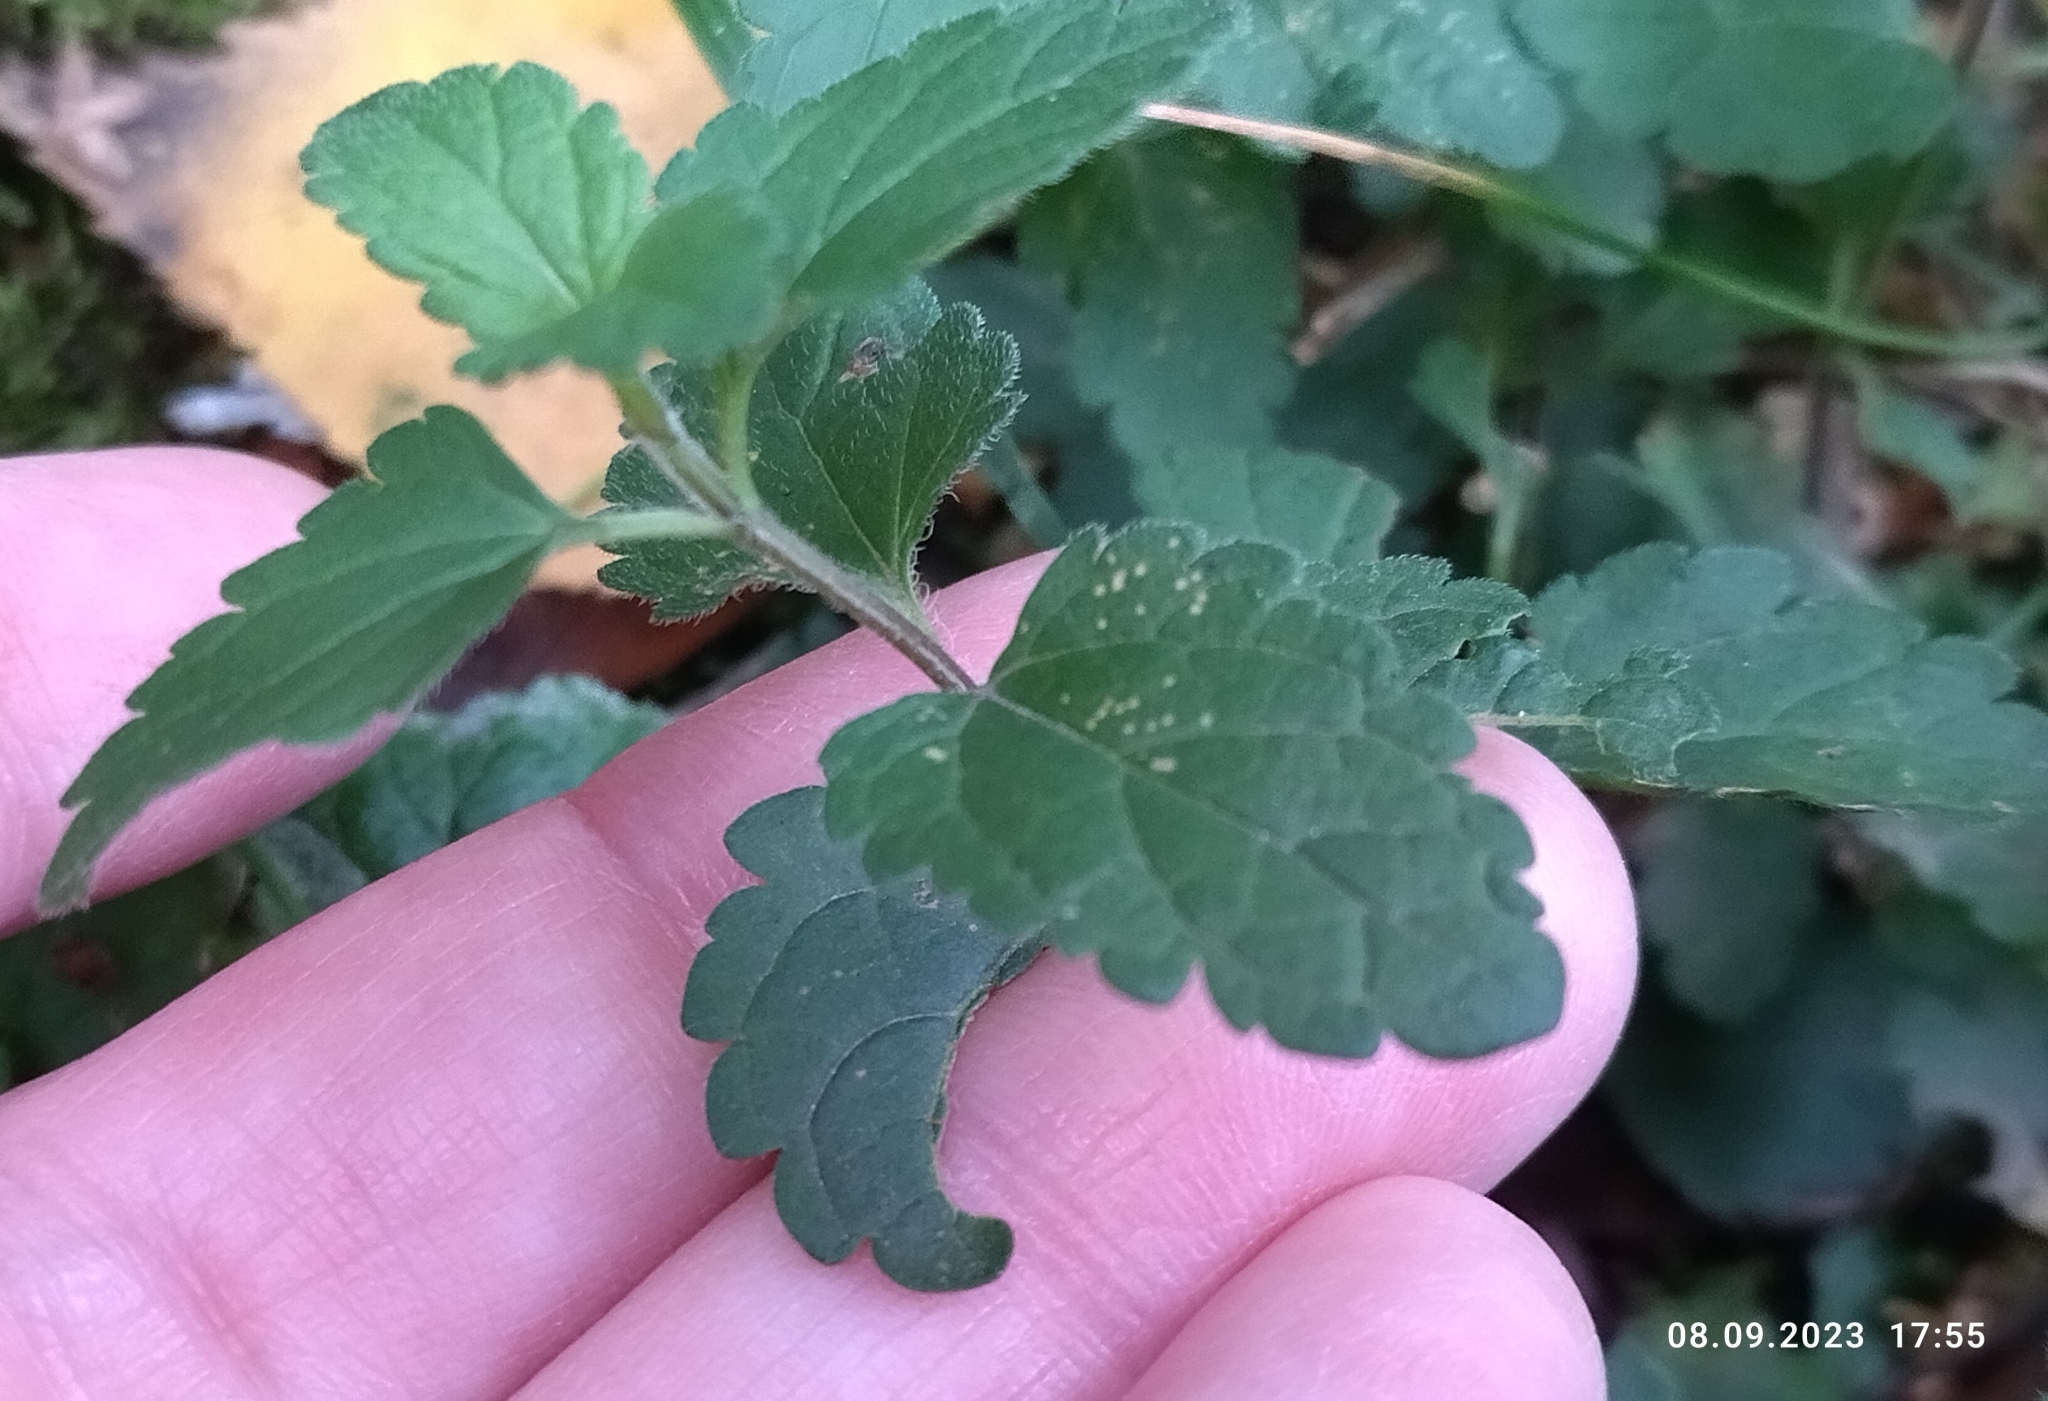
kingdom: Plantae
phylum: Tracheophyta
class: Magnoliopsida
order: Lamiales
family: Plantaginaceae
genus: Veronica
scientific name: Veronica chamaedrys
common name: Germander speedwell
